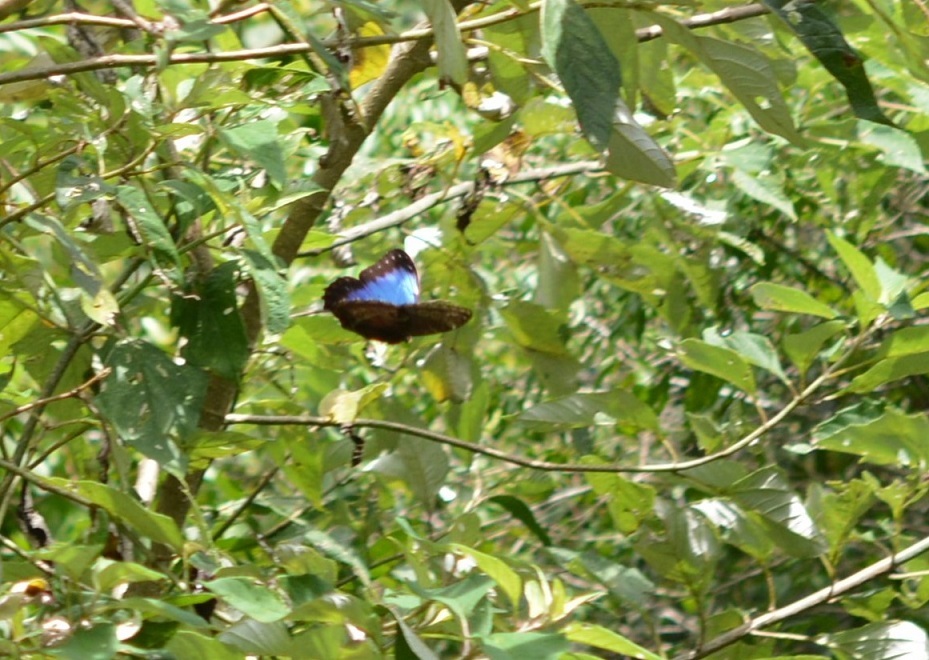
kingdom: Animalia
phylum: Arthropoda
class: Insecta
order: Lepidoptera
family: Nymphalidae
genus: Morpho
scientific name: Morpho helenor
